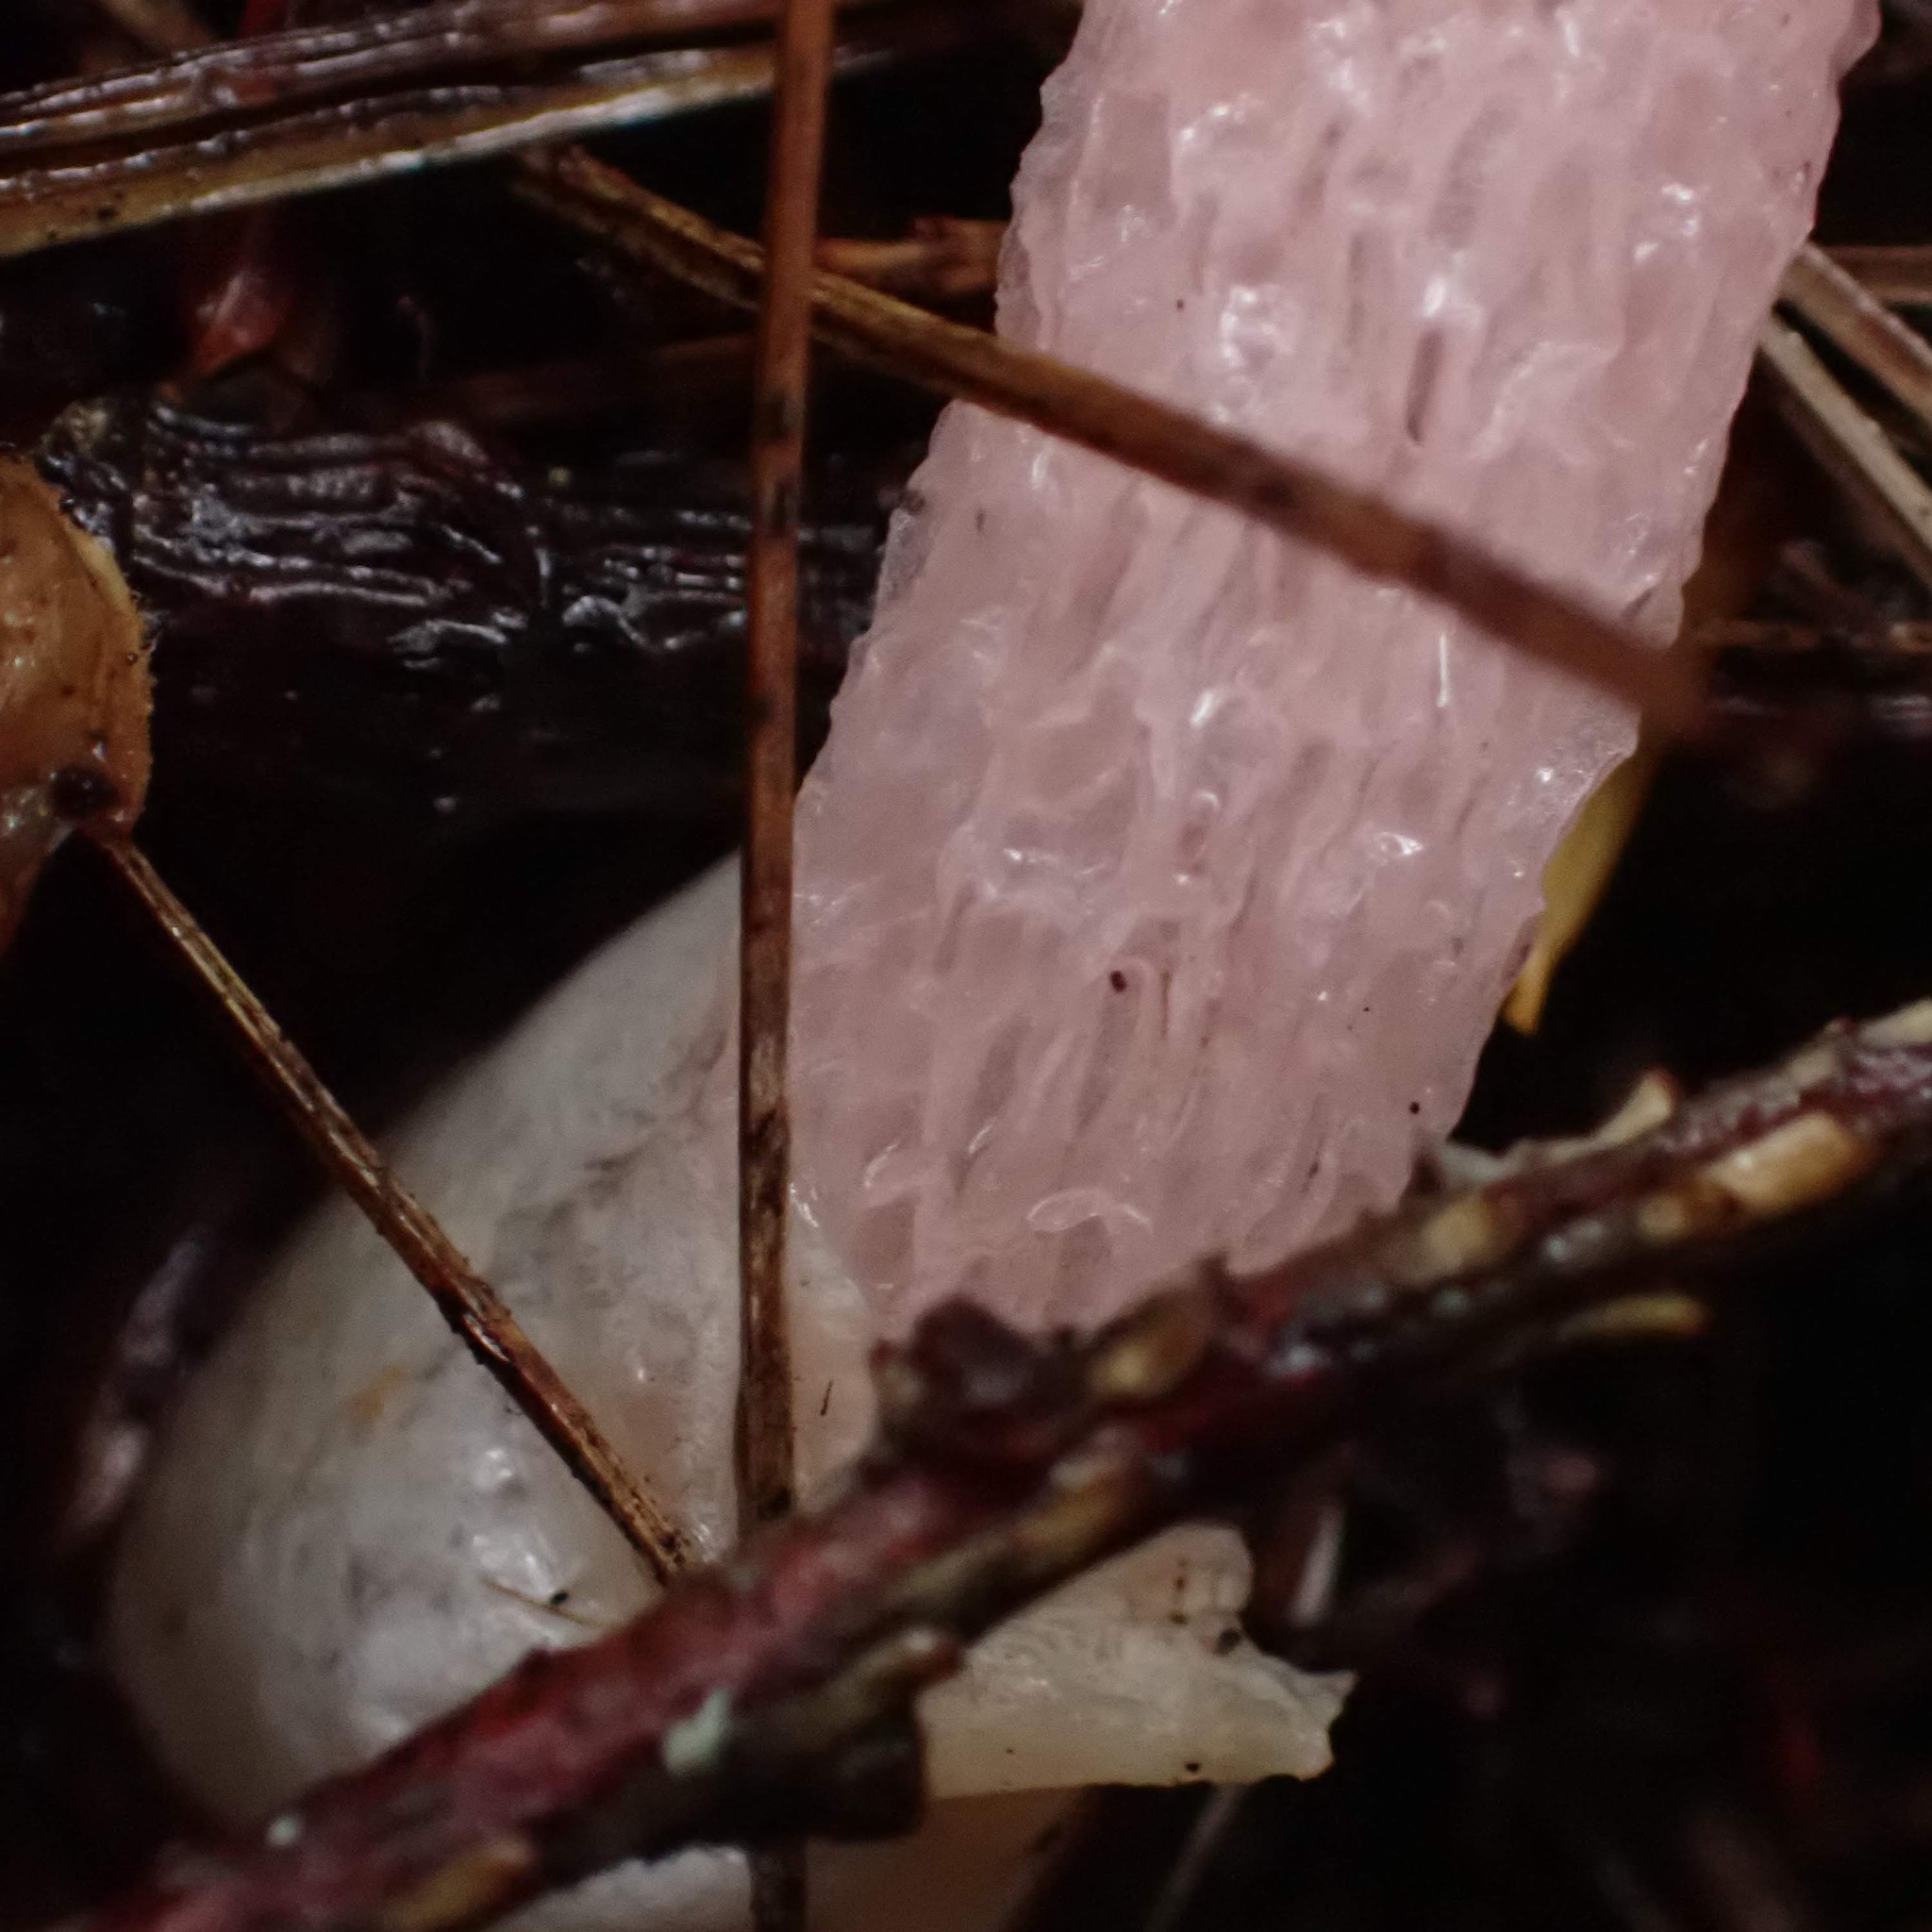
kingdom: Fungi
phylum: Basidiomycota
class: Agaricomycetes
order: Phallales
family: Phallaceae
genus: Mutinus
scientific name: Mutinus ravenelii
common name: Red stinkhorn
